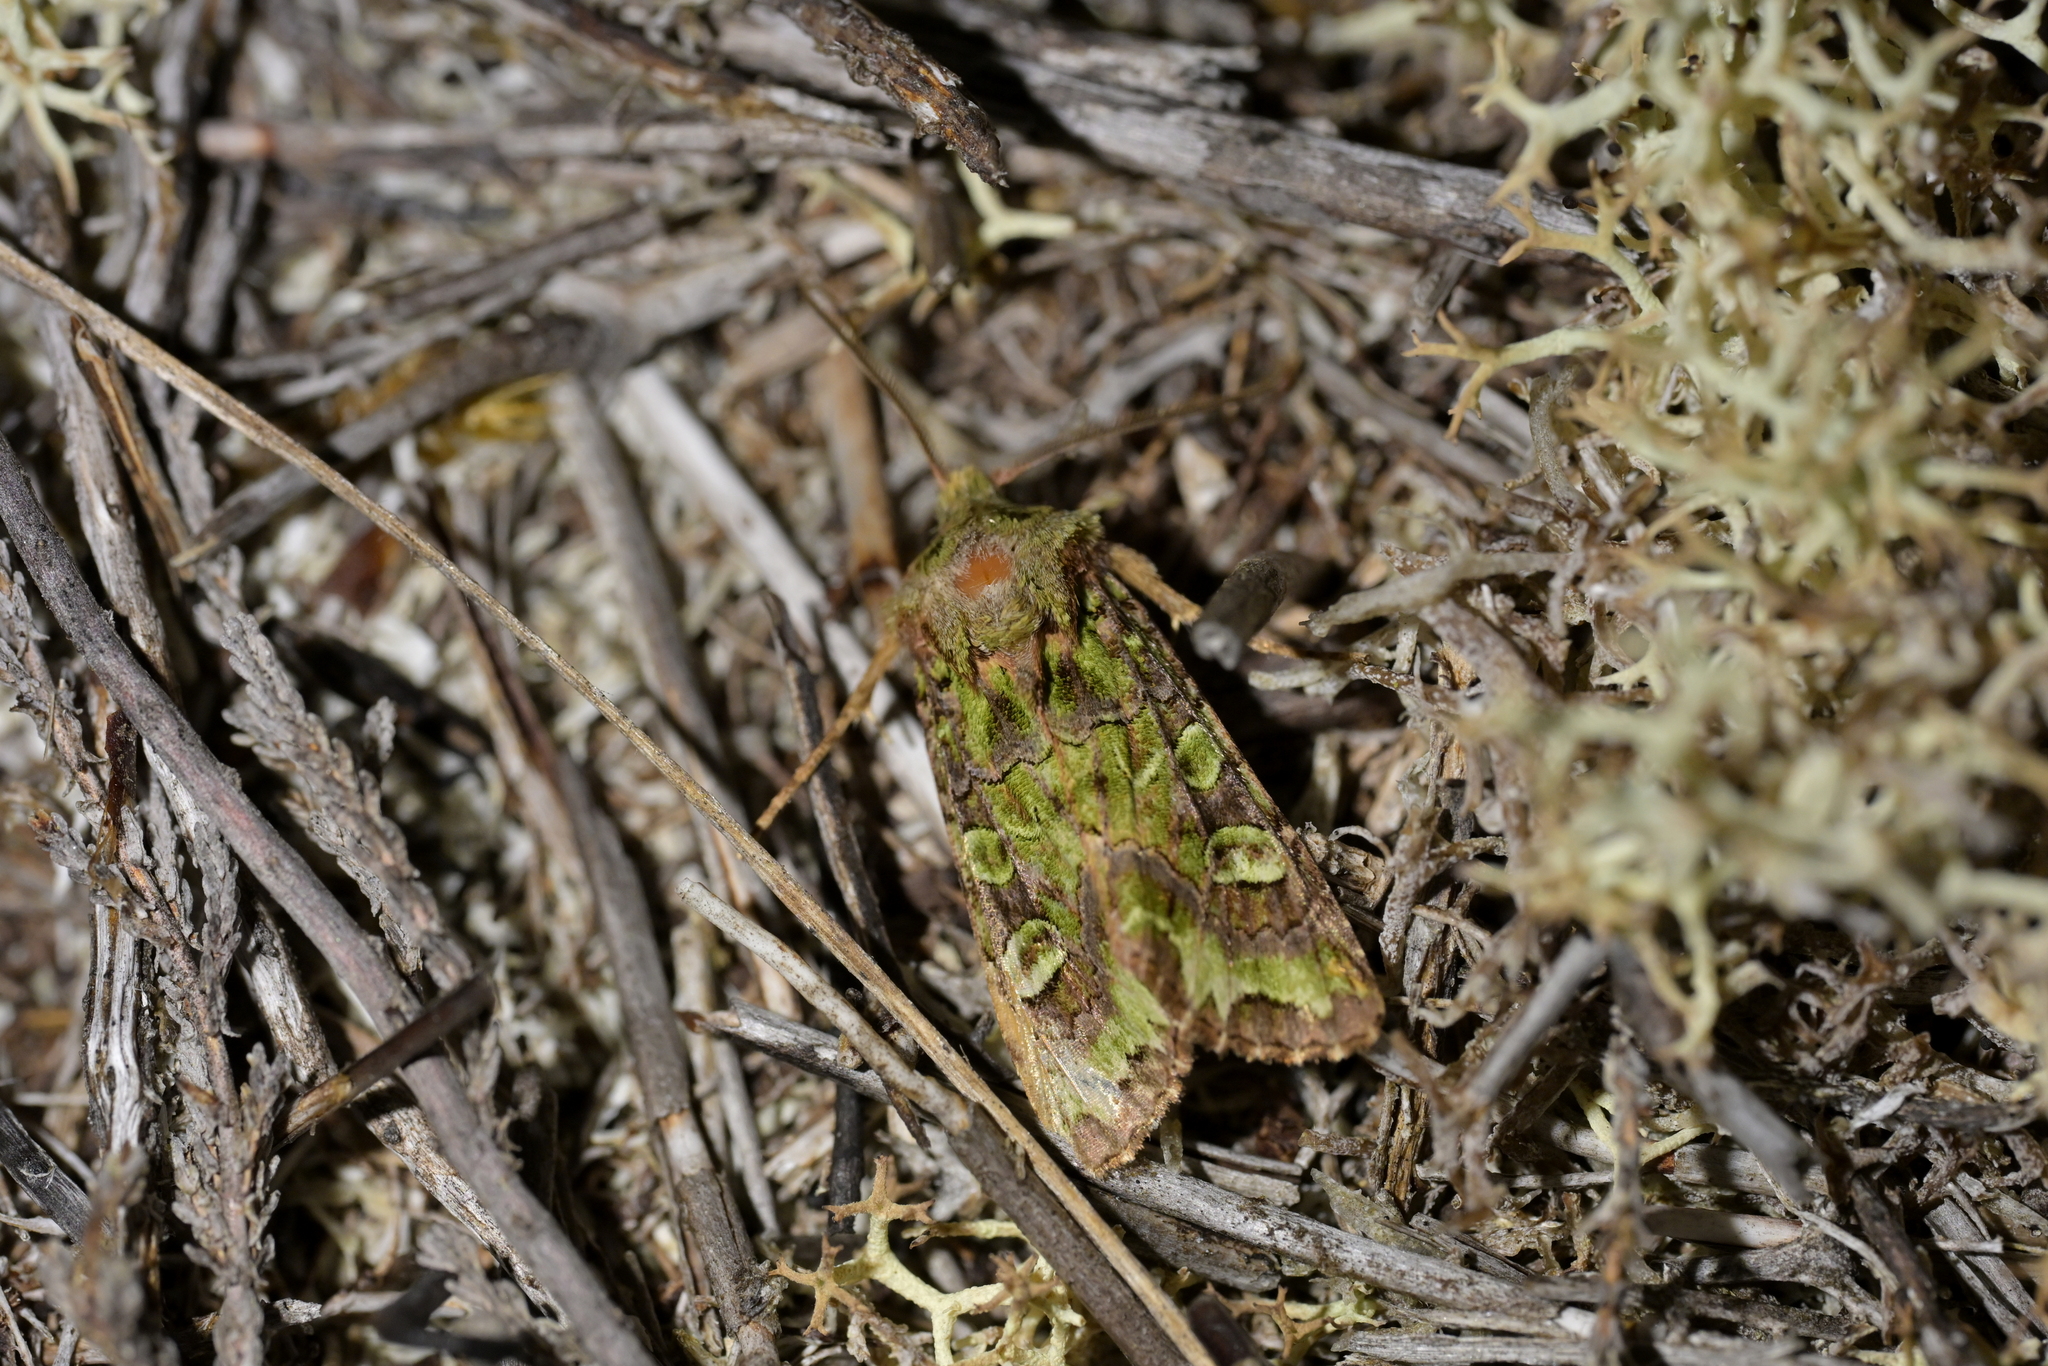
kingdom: Animalia
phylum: Arthropoda
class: Insecta
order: Lepidoptera
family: Noctuidae
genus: Ichneutica
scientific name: Ichneutica chlorodonta
